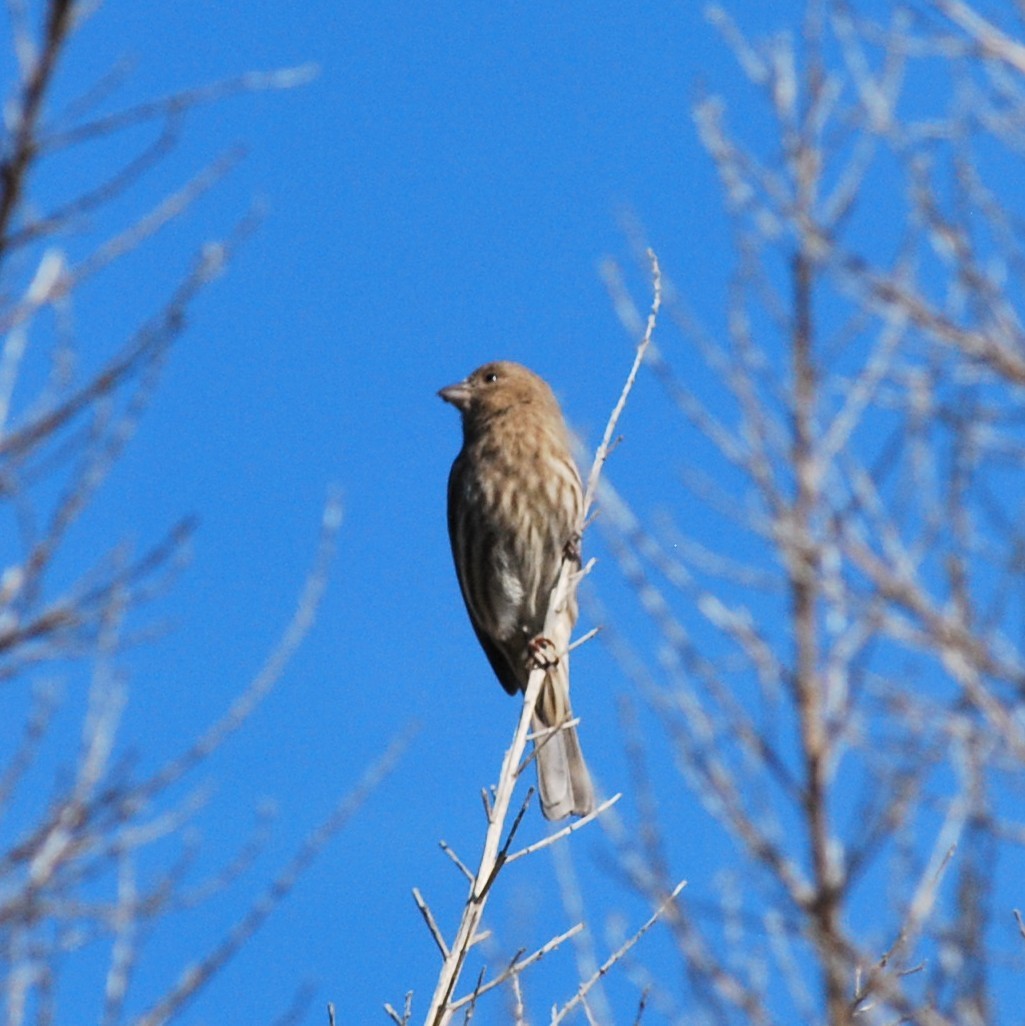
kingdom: Animalia
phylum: Chordata
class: Aves
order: Passeriformes
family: Fringillidae
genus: Haemorhous
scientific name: Haemorhous mexicanus
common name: House finch
